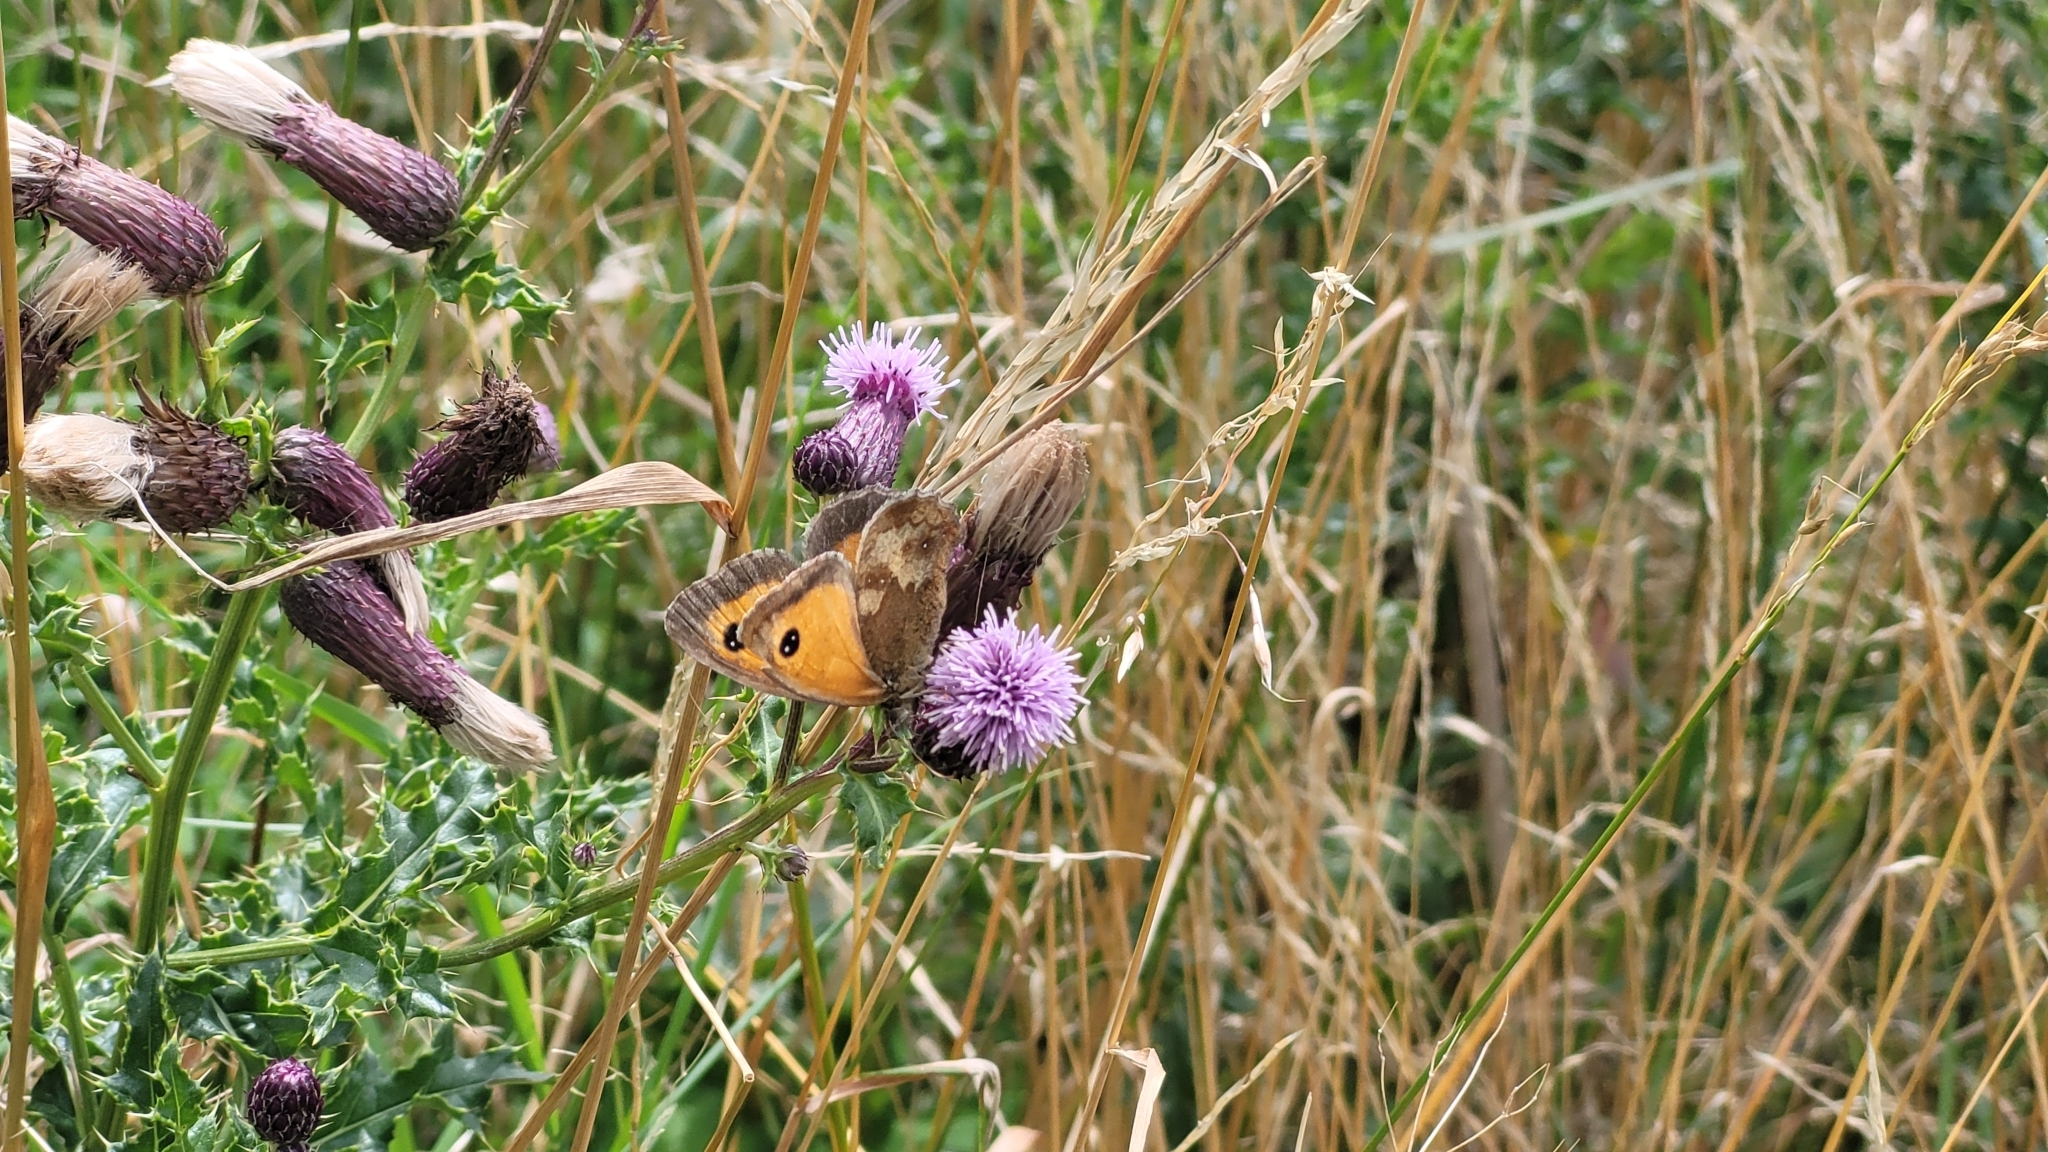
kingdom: Animalia
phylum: Arthropoda
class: Insecta
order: Lepidoptera
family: Nymphalidae
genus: Pyronia
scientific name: Pyronia tithonus
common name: Gatekeeper
